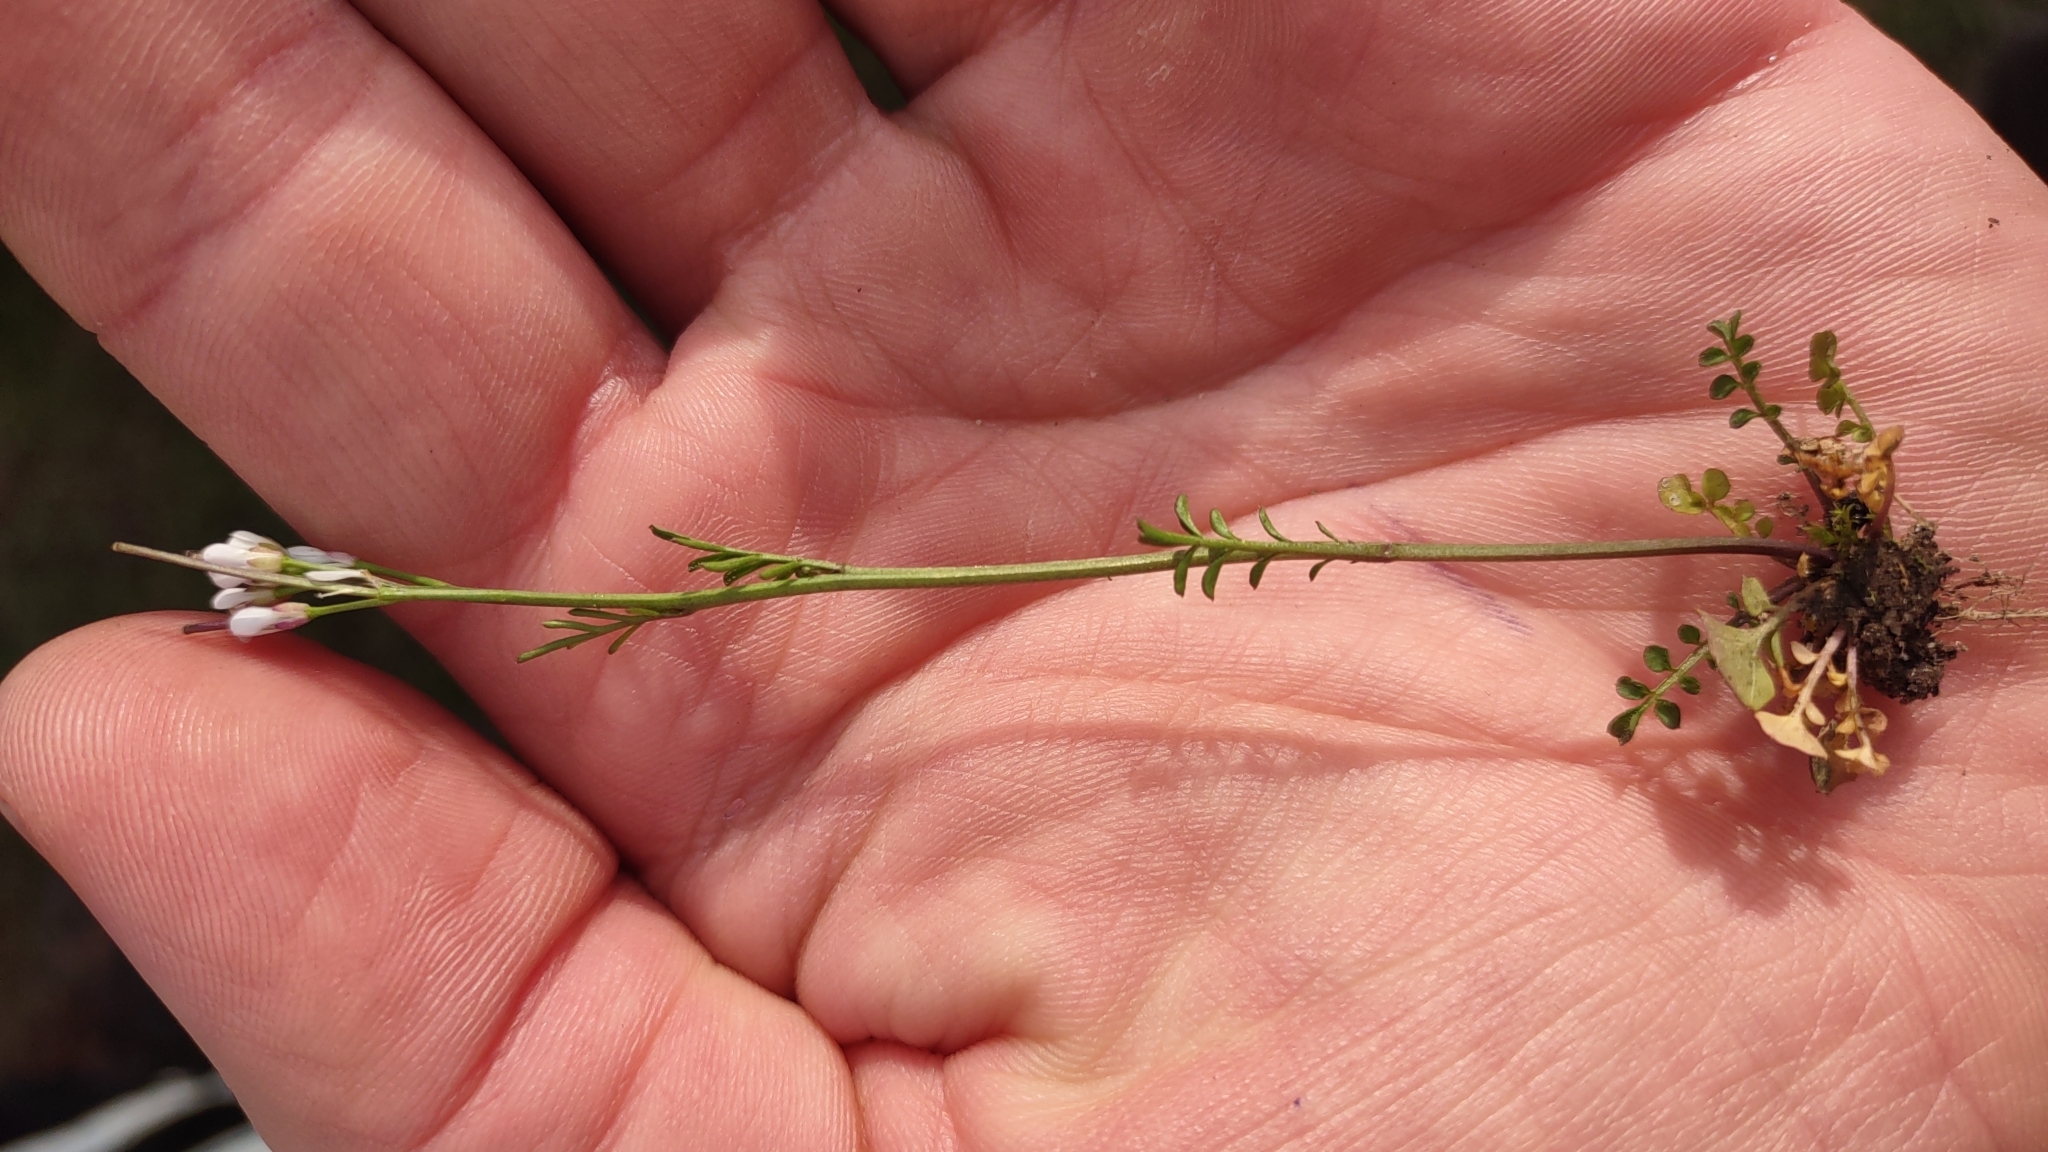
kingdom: Plantae
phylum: Tracheophyta
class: Magnoliopsida
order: Brassicales
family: Brassicaceae
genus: Cardamine
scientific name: Cardamine hirsuta
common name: Hairy bittercress
